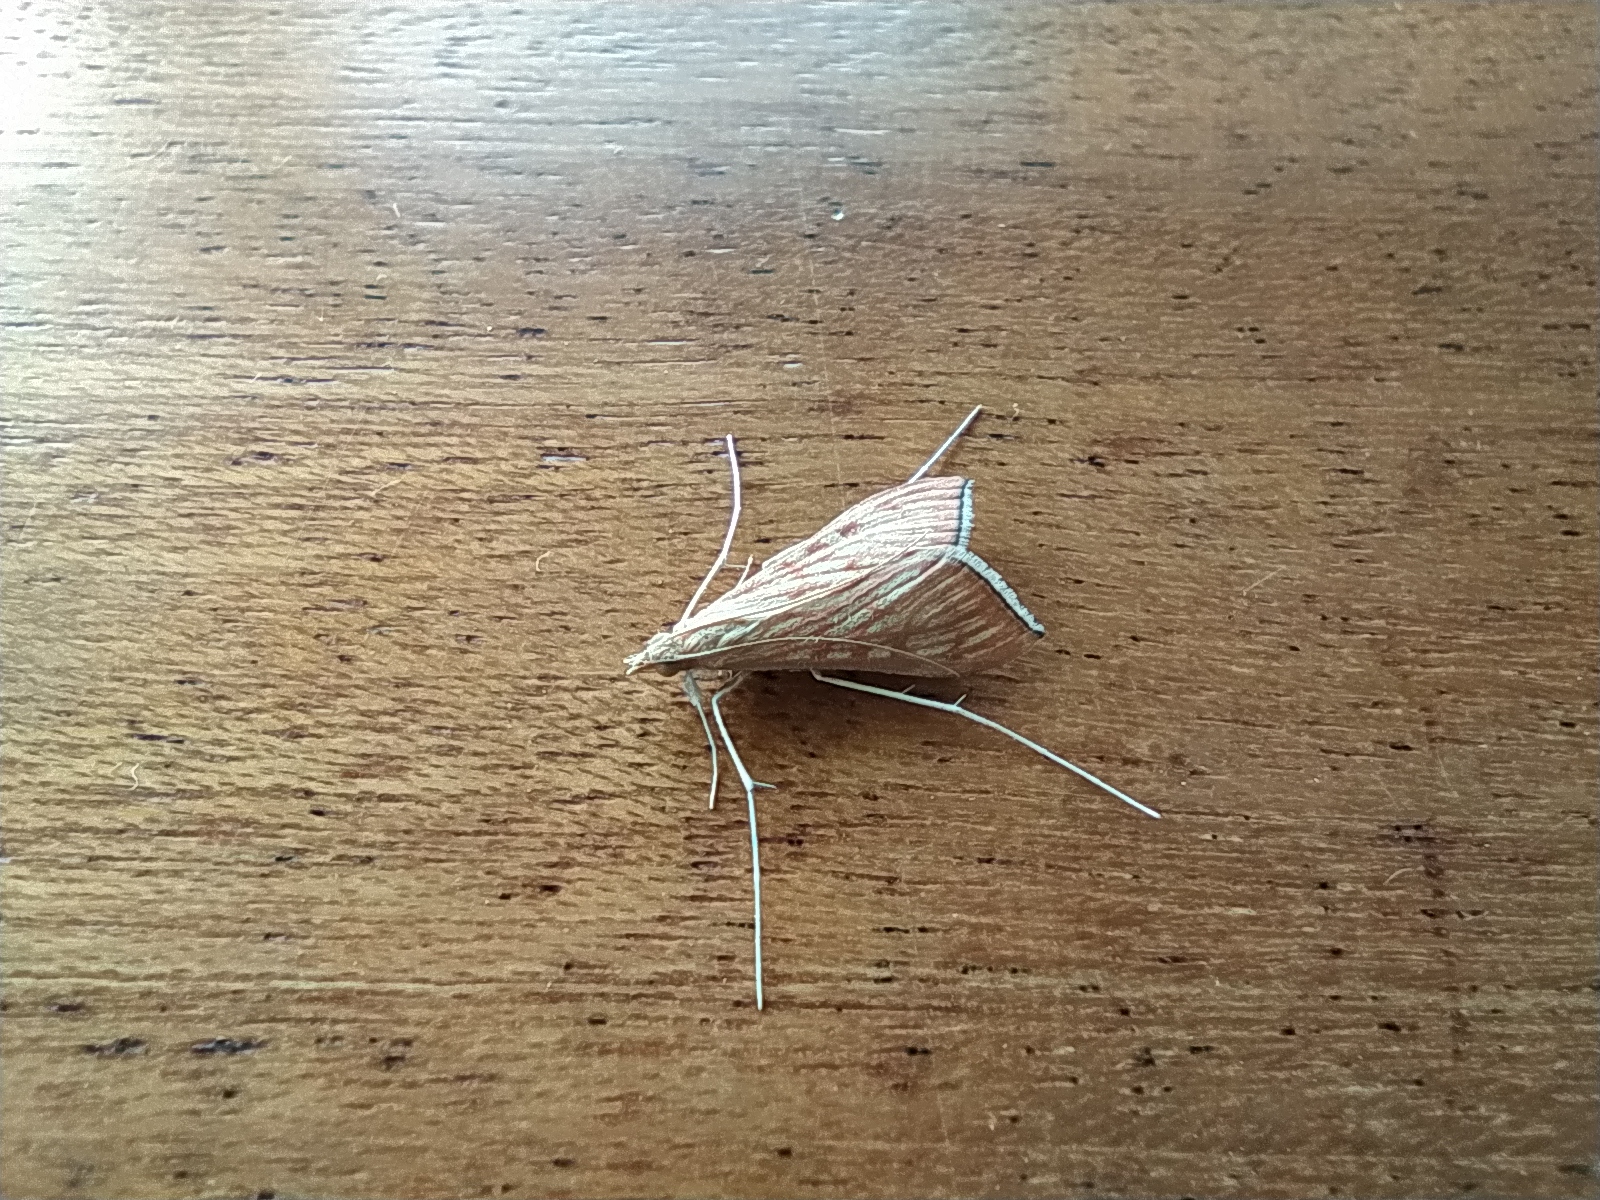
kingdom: Animalia
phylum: Arthropoda
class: Insecta
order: Lepidoptera
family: Crambidae
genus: Antigastra
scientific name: Antigastra catalaunalis
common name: Spanish dot
